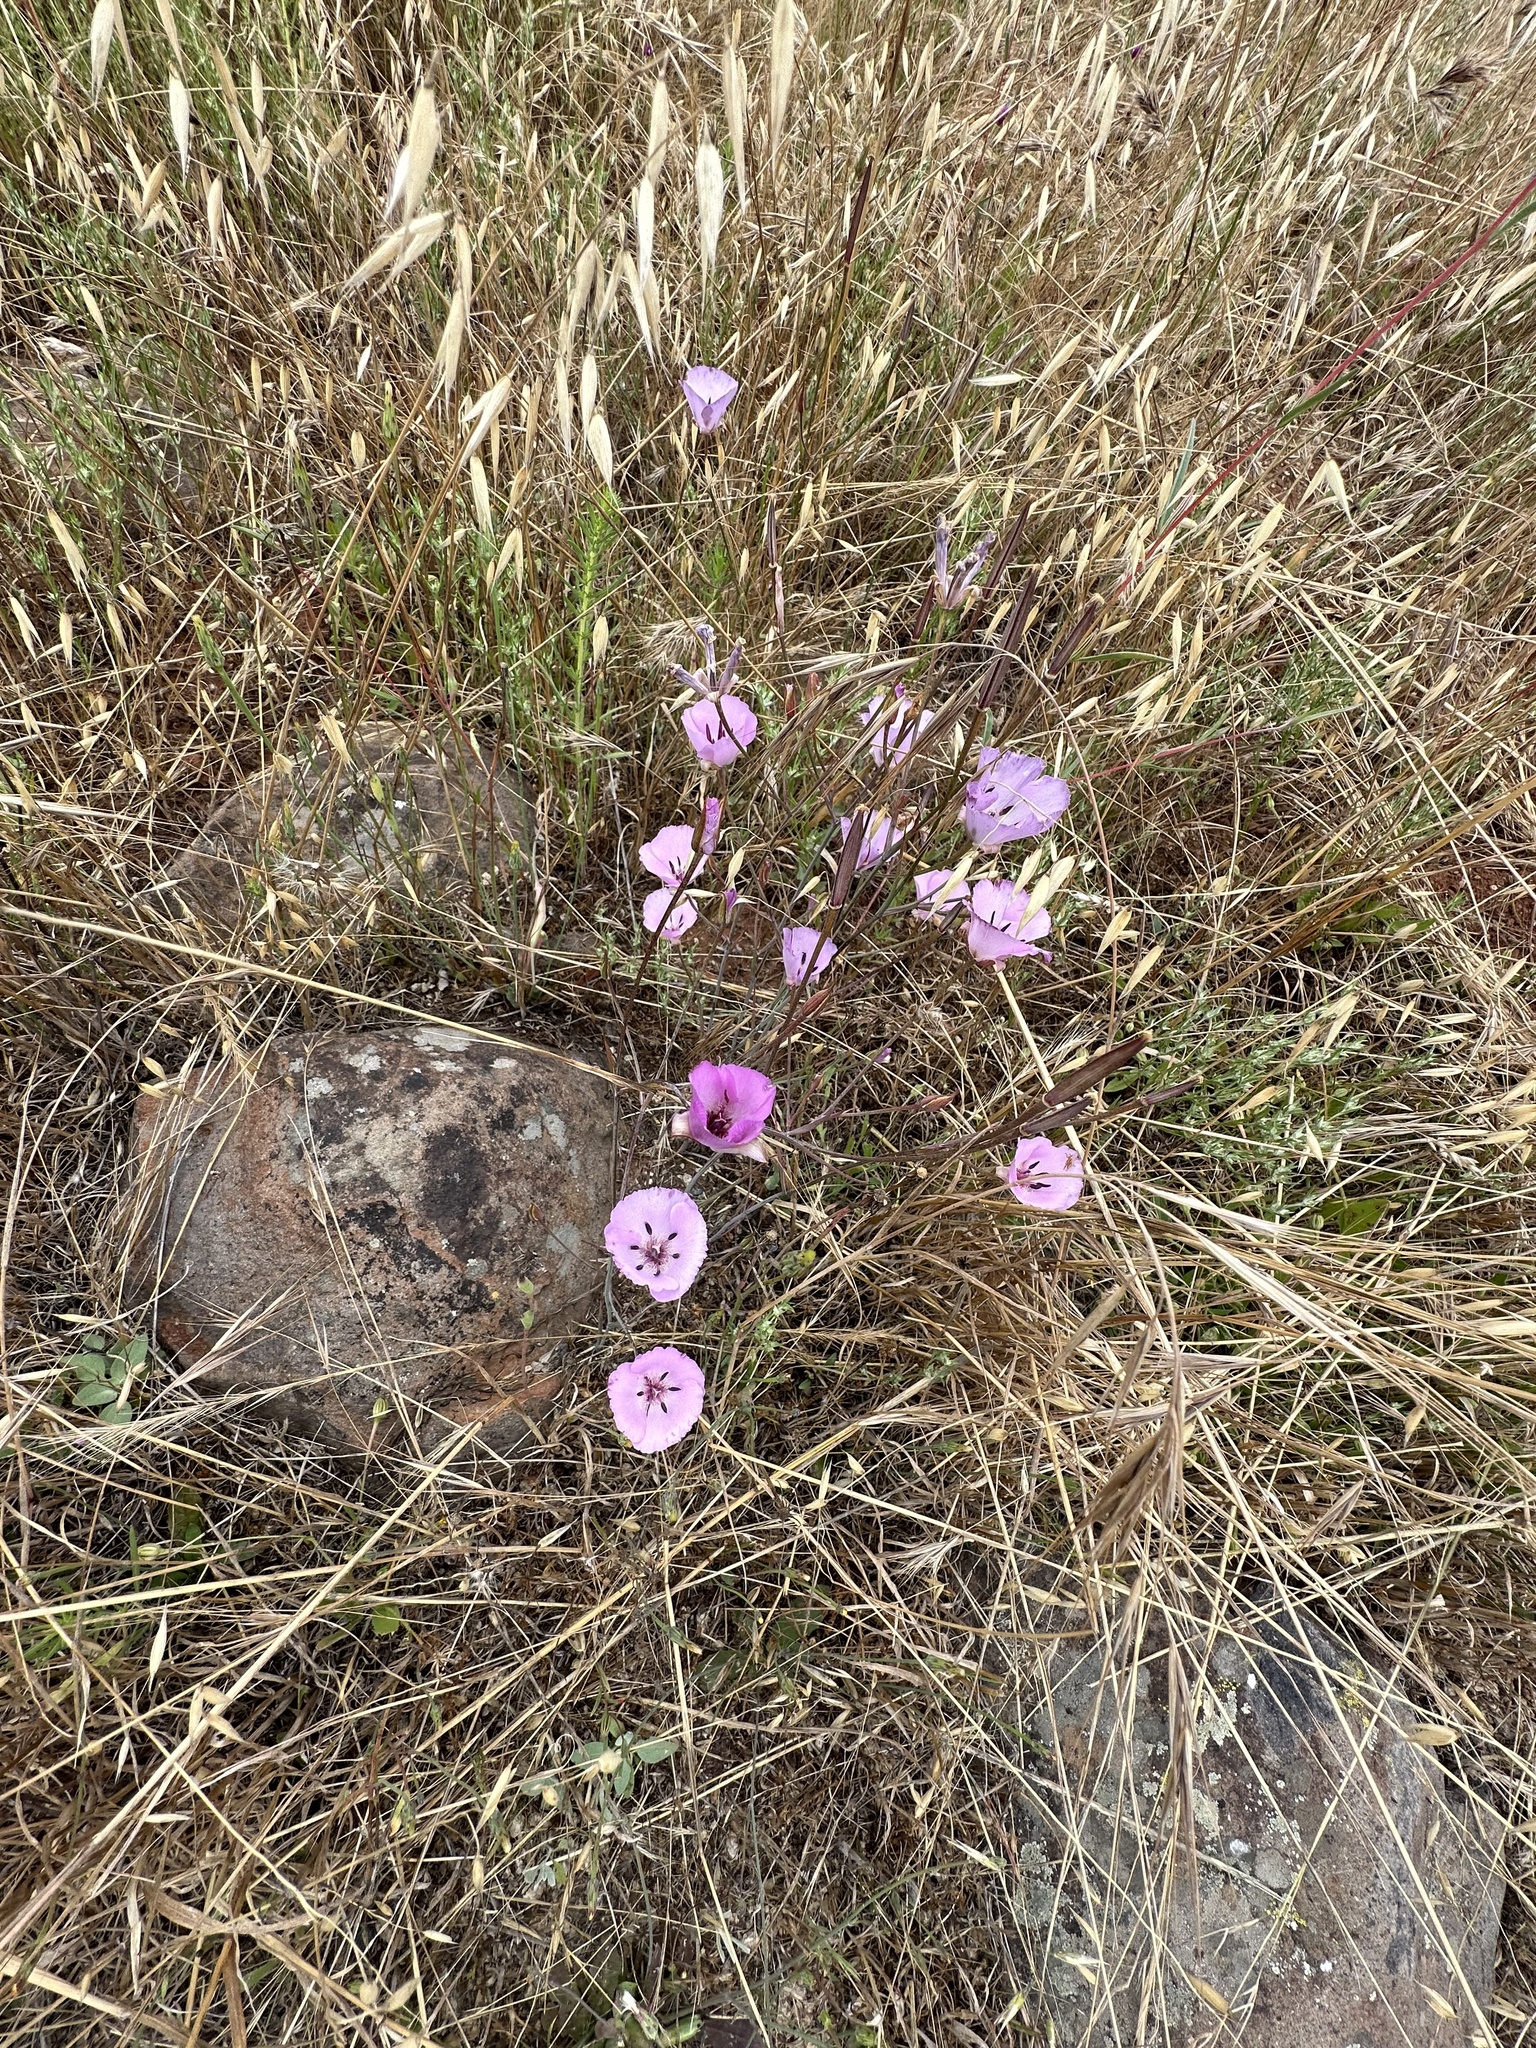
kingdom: Plantae
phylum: Tracheophyta
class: Liliopsida
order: Liliales
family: Liliaceae
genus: Calochortus
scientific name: Calochortus splendens
